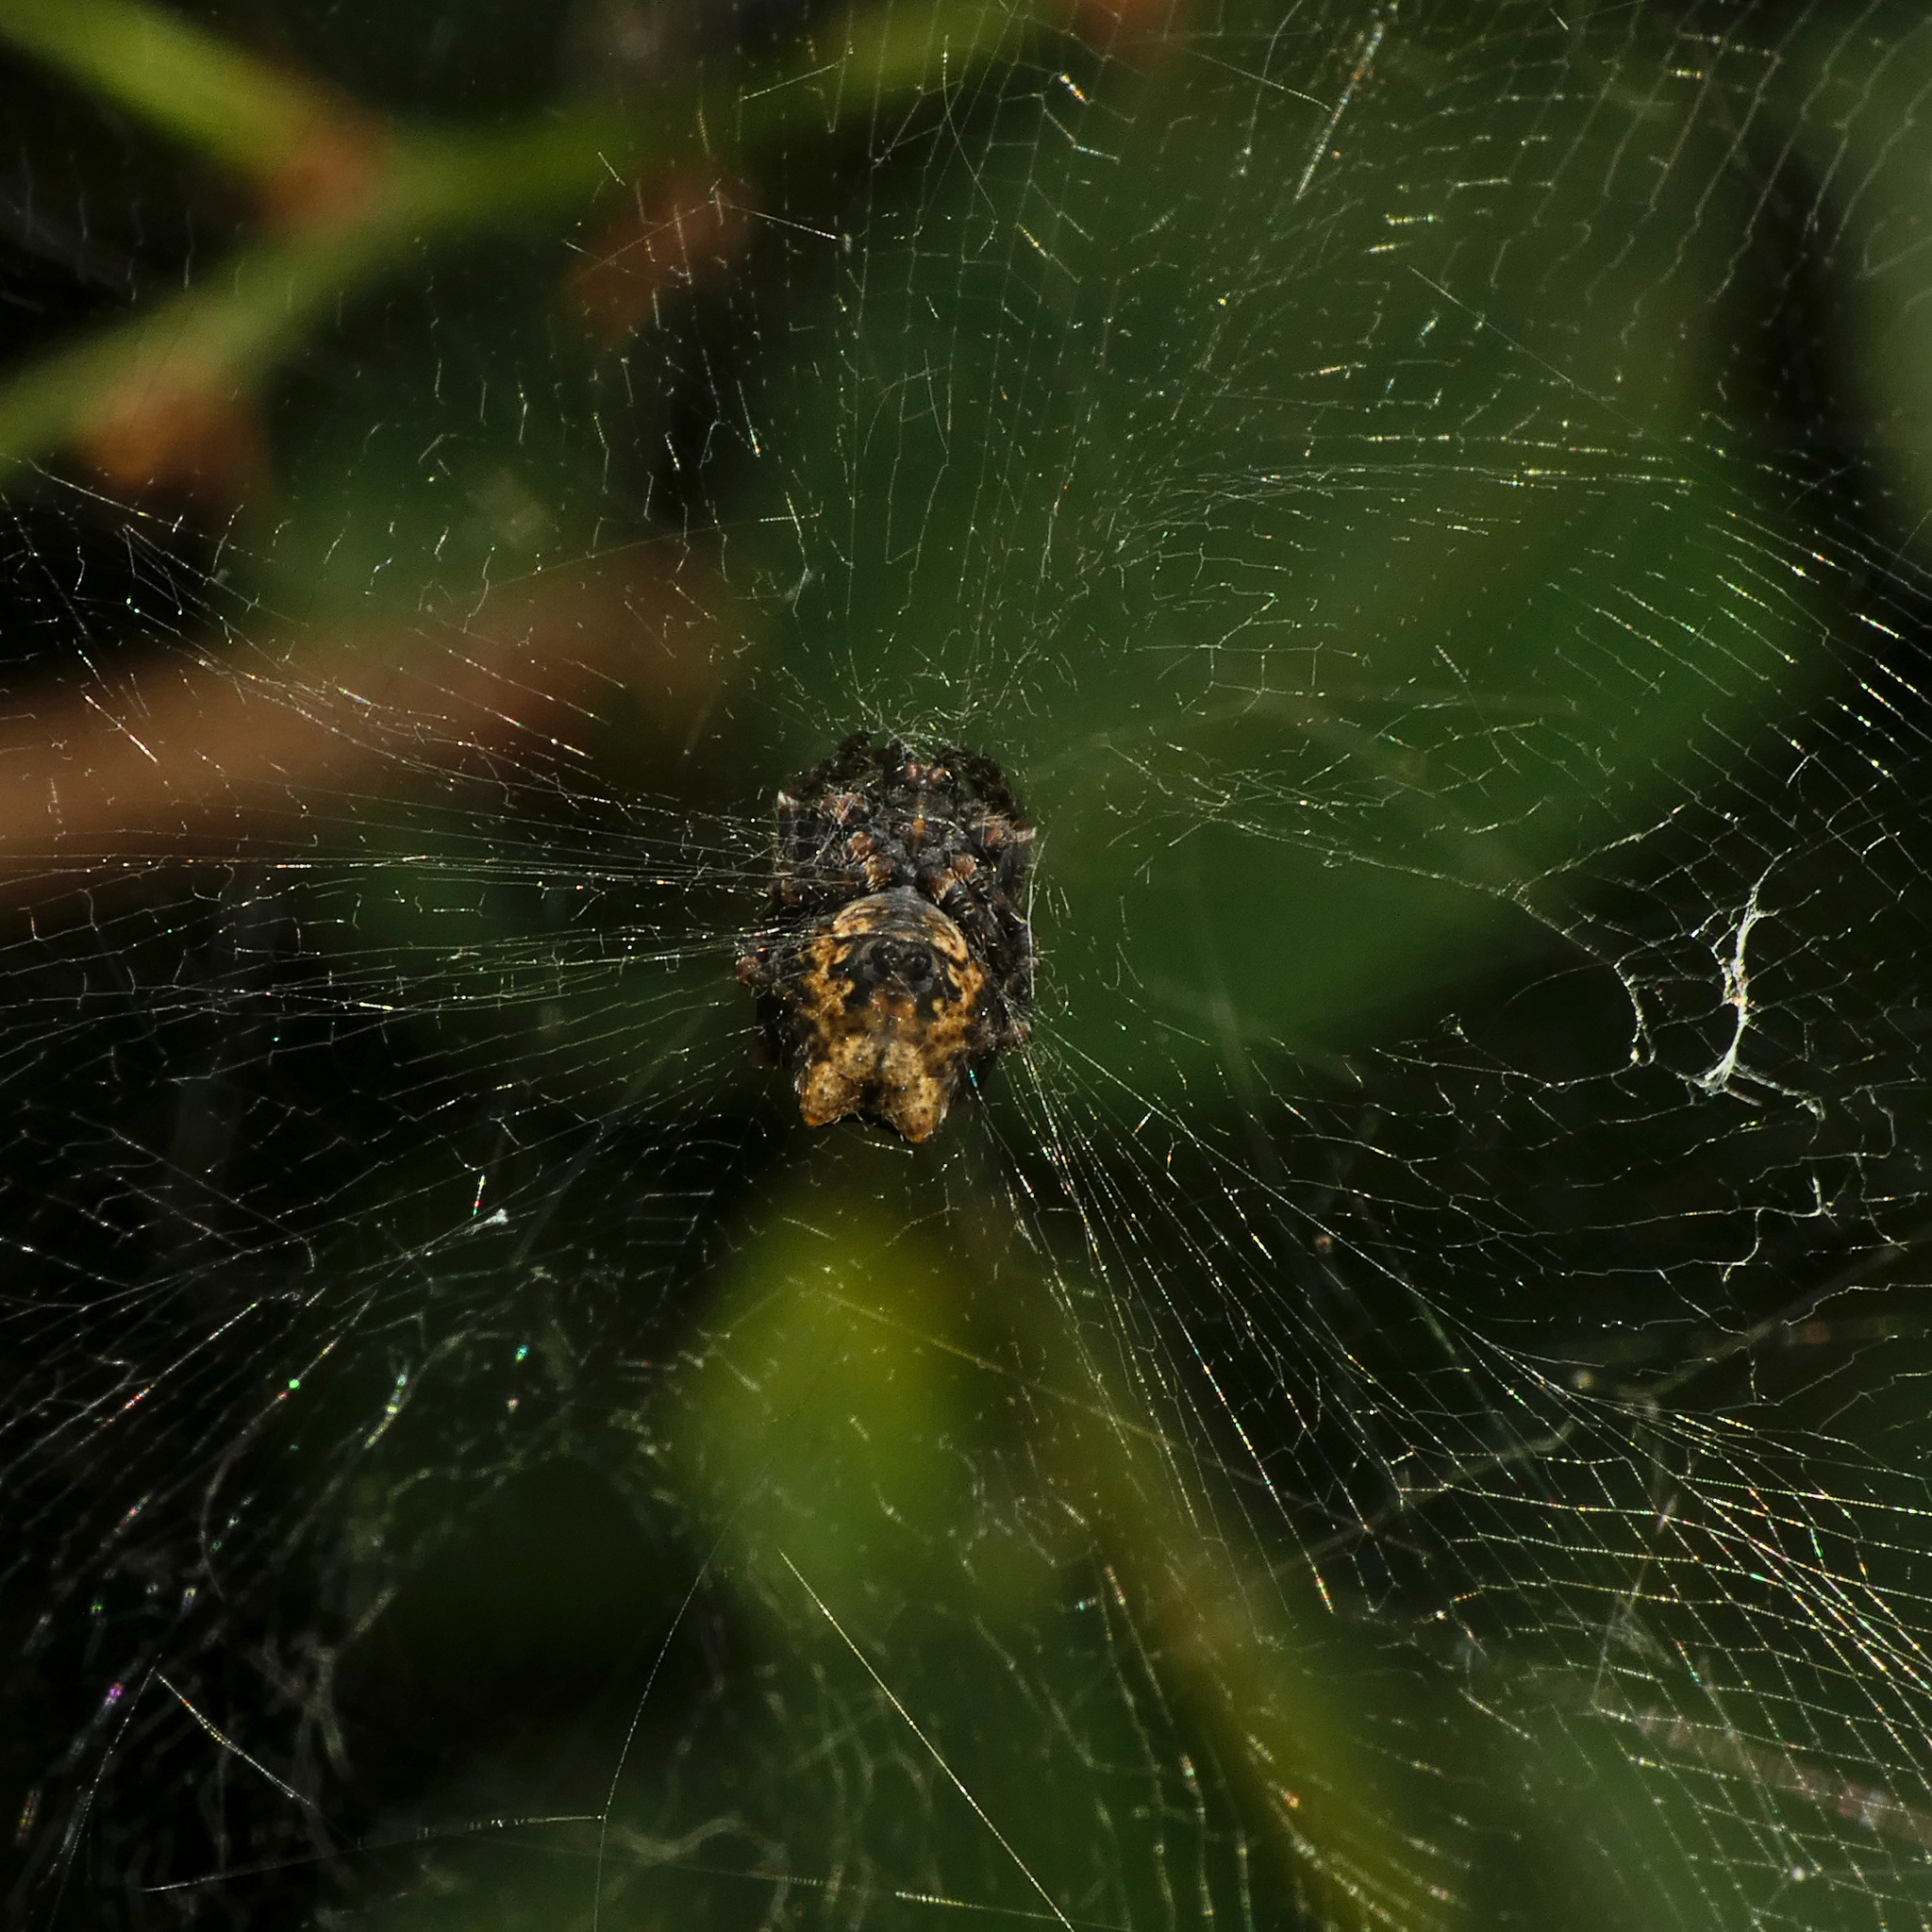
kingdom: Animalia
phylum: Arthropoda
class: Arachnida
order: Araneae
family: Araneidae
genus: Cyrtophora
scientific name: Cyrtophora citricola
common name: Orb weavers
